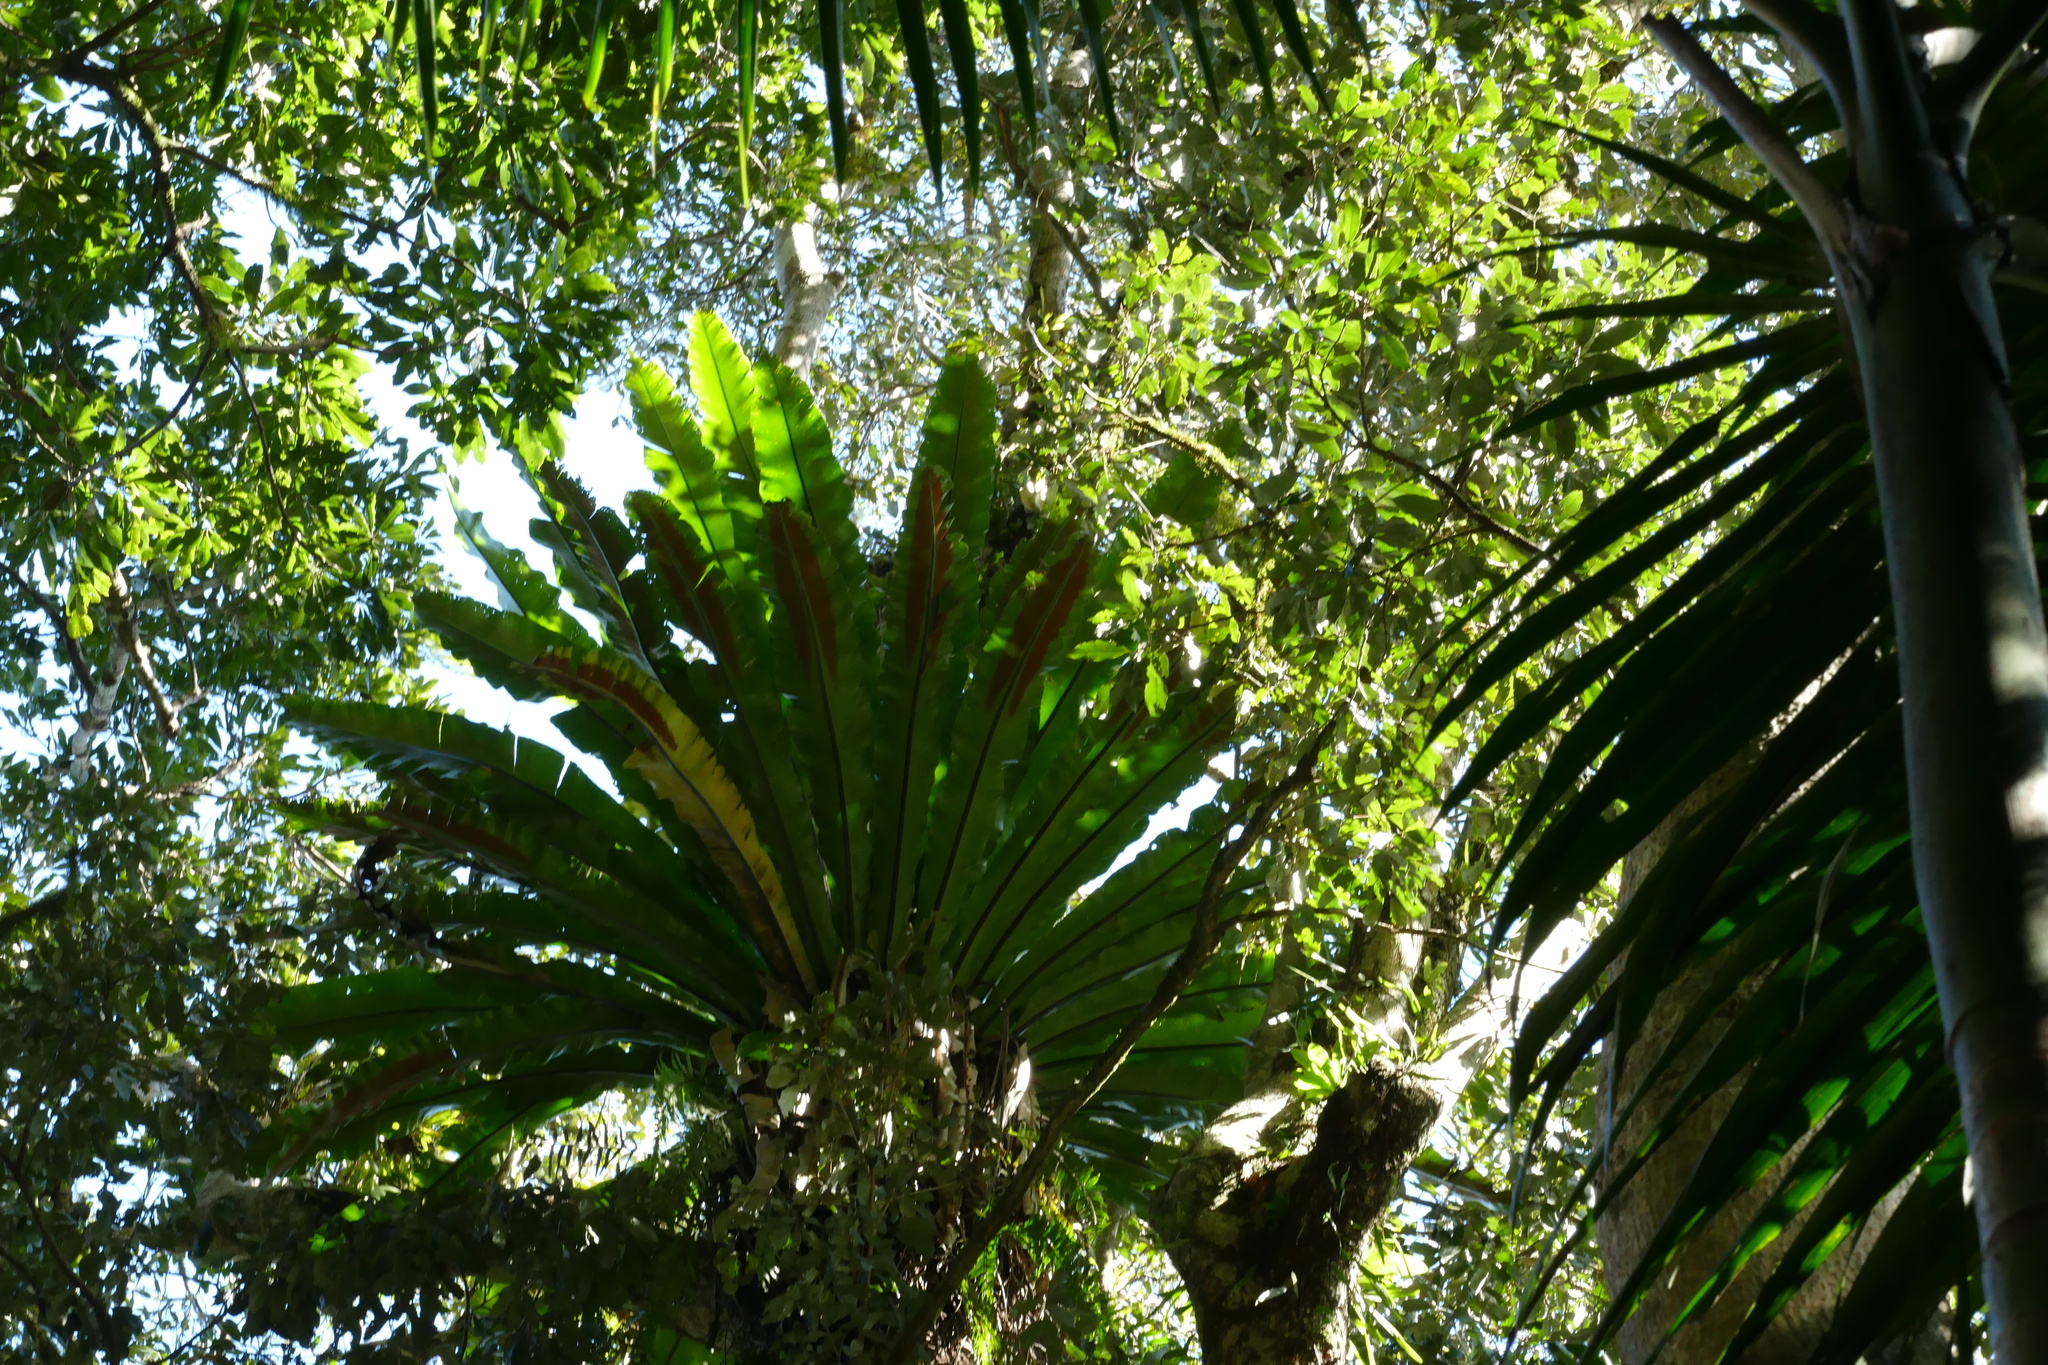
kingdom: Plantae
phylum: Tracheophyta
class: Polypodiopsida
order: Polypodiales
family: Aspleniaceae
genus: Asplenium
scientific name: Asplenium australasicum
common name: Bird's-nest fern
